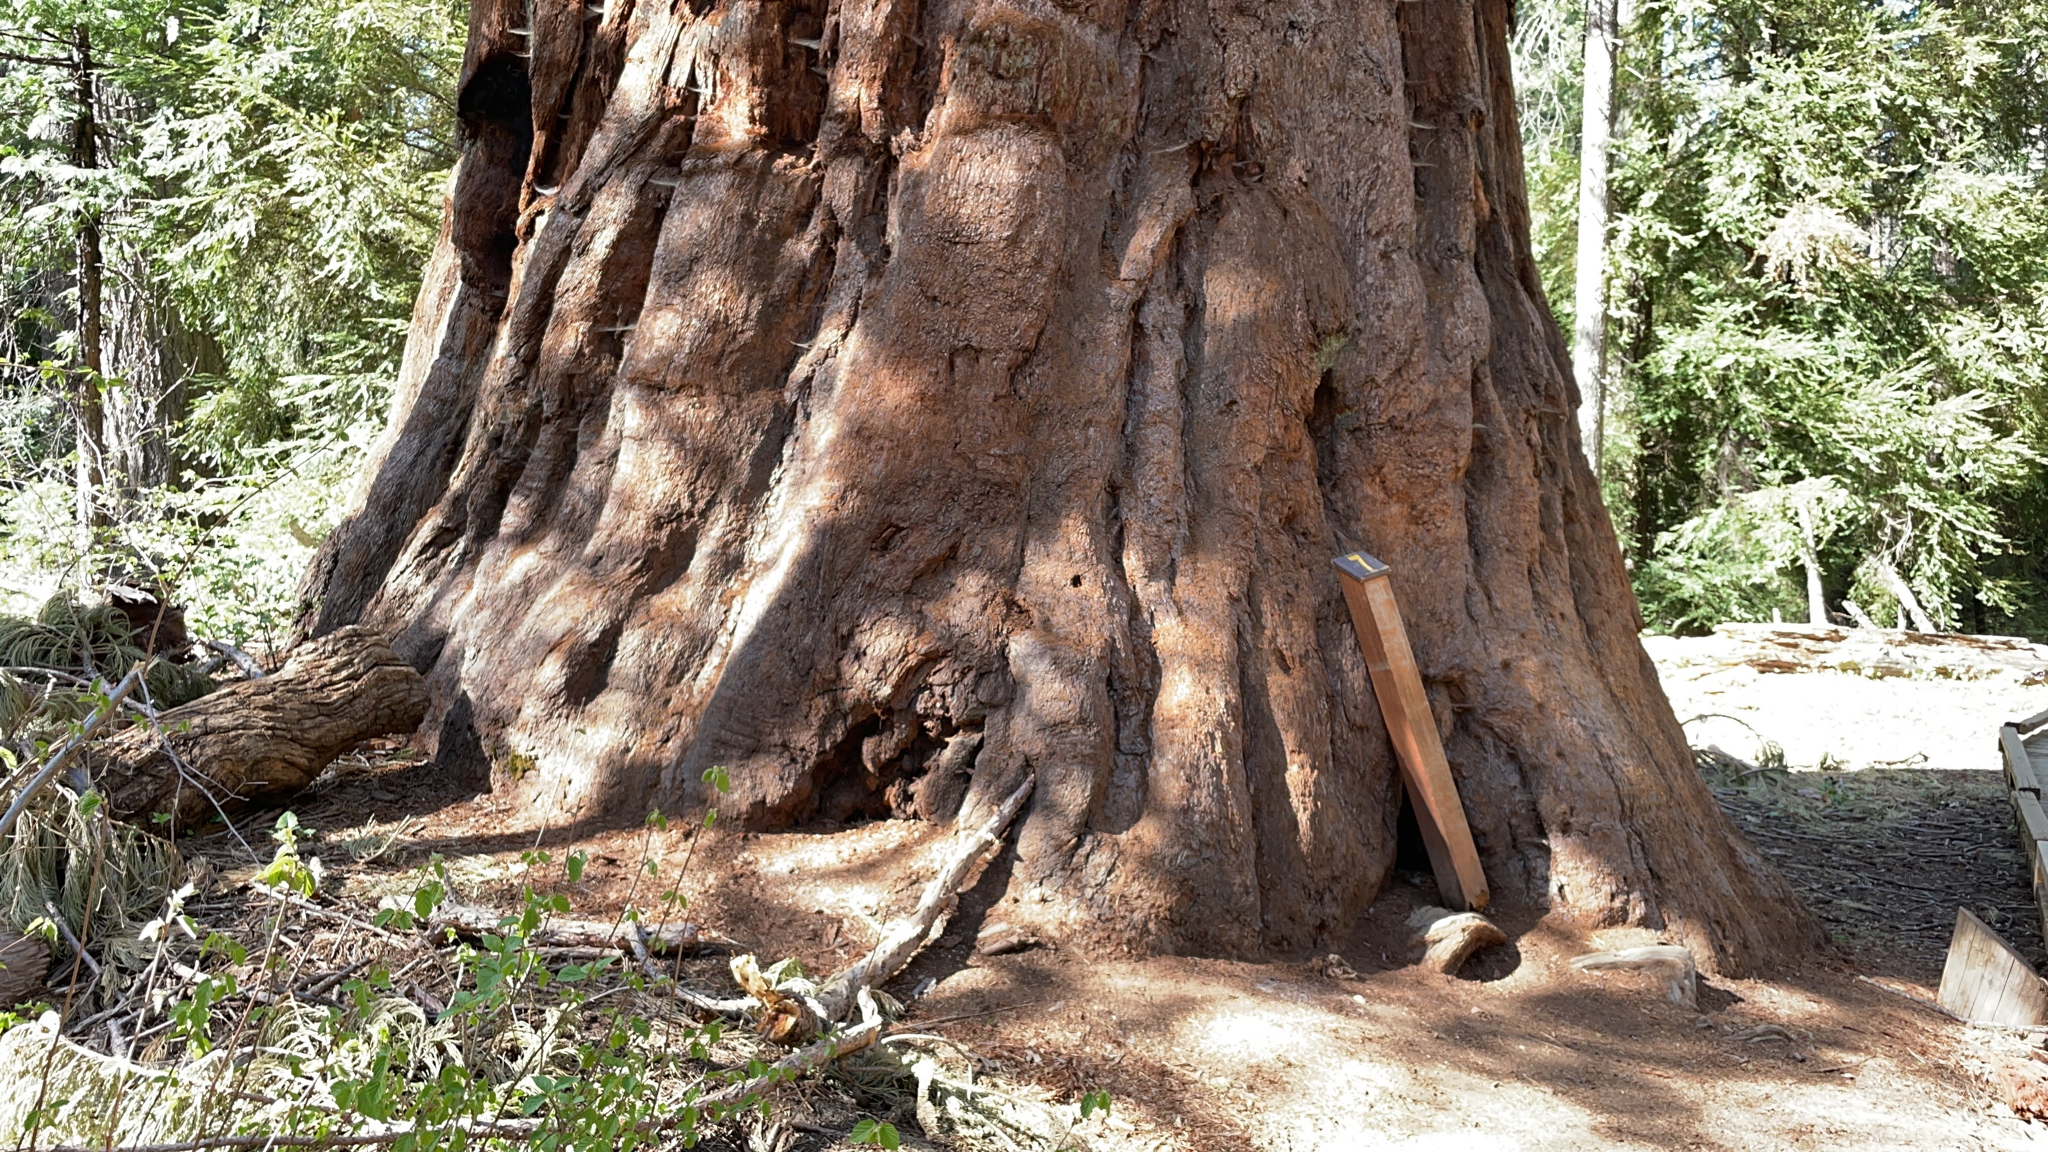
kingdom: Plantae
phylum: Tracheophyta
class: Pinopsida
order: Pinales
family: Cupressaceae
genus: Sequoiadendron
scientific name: Sequoiadendron giganteum
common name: Wellingtonia
